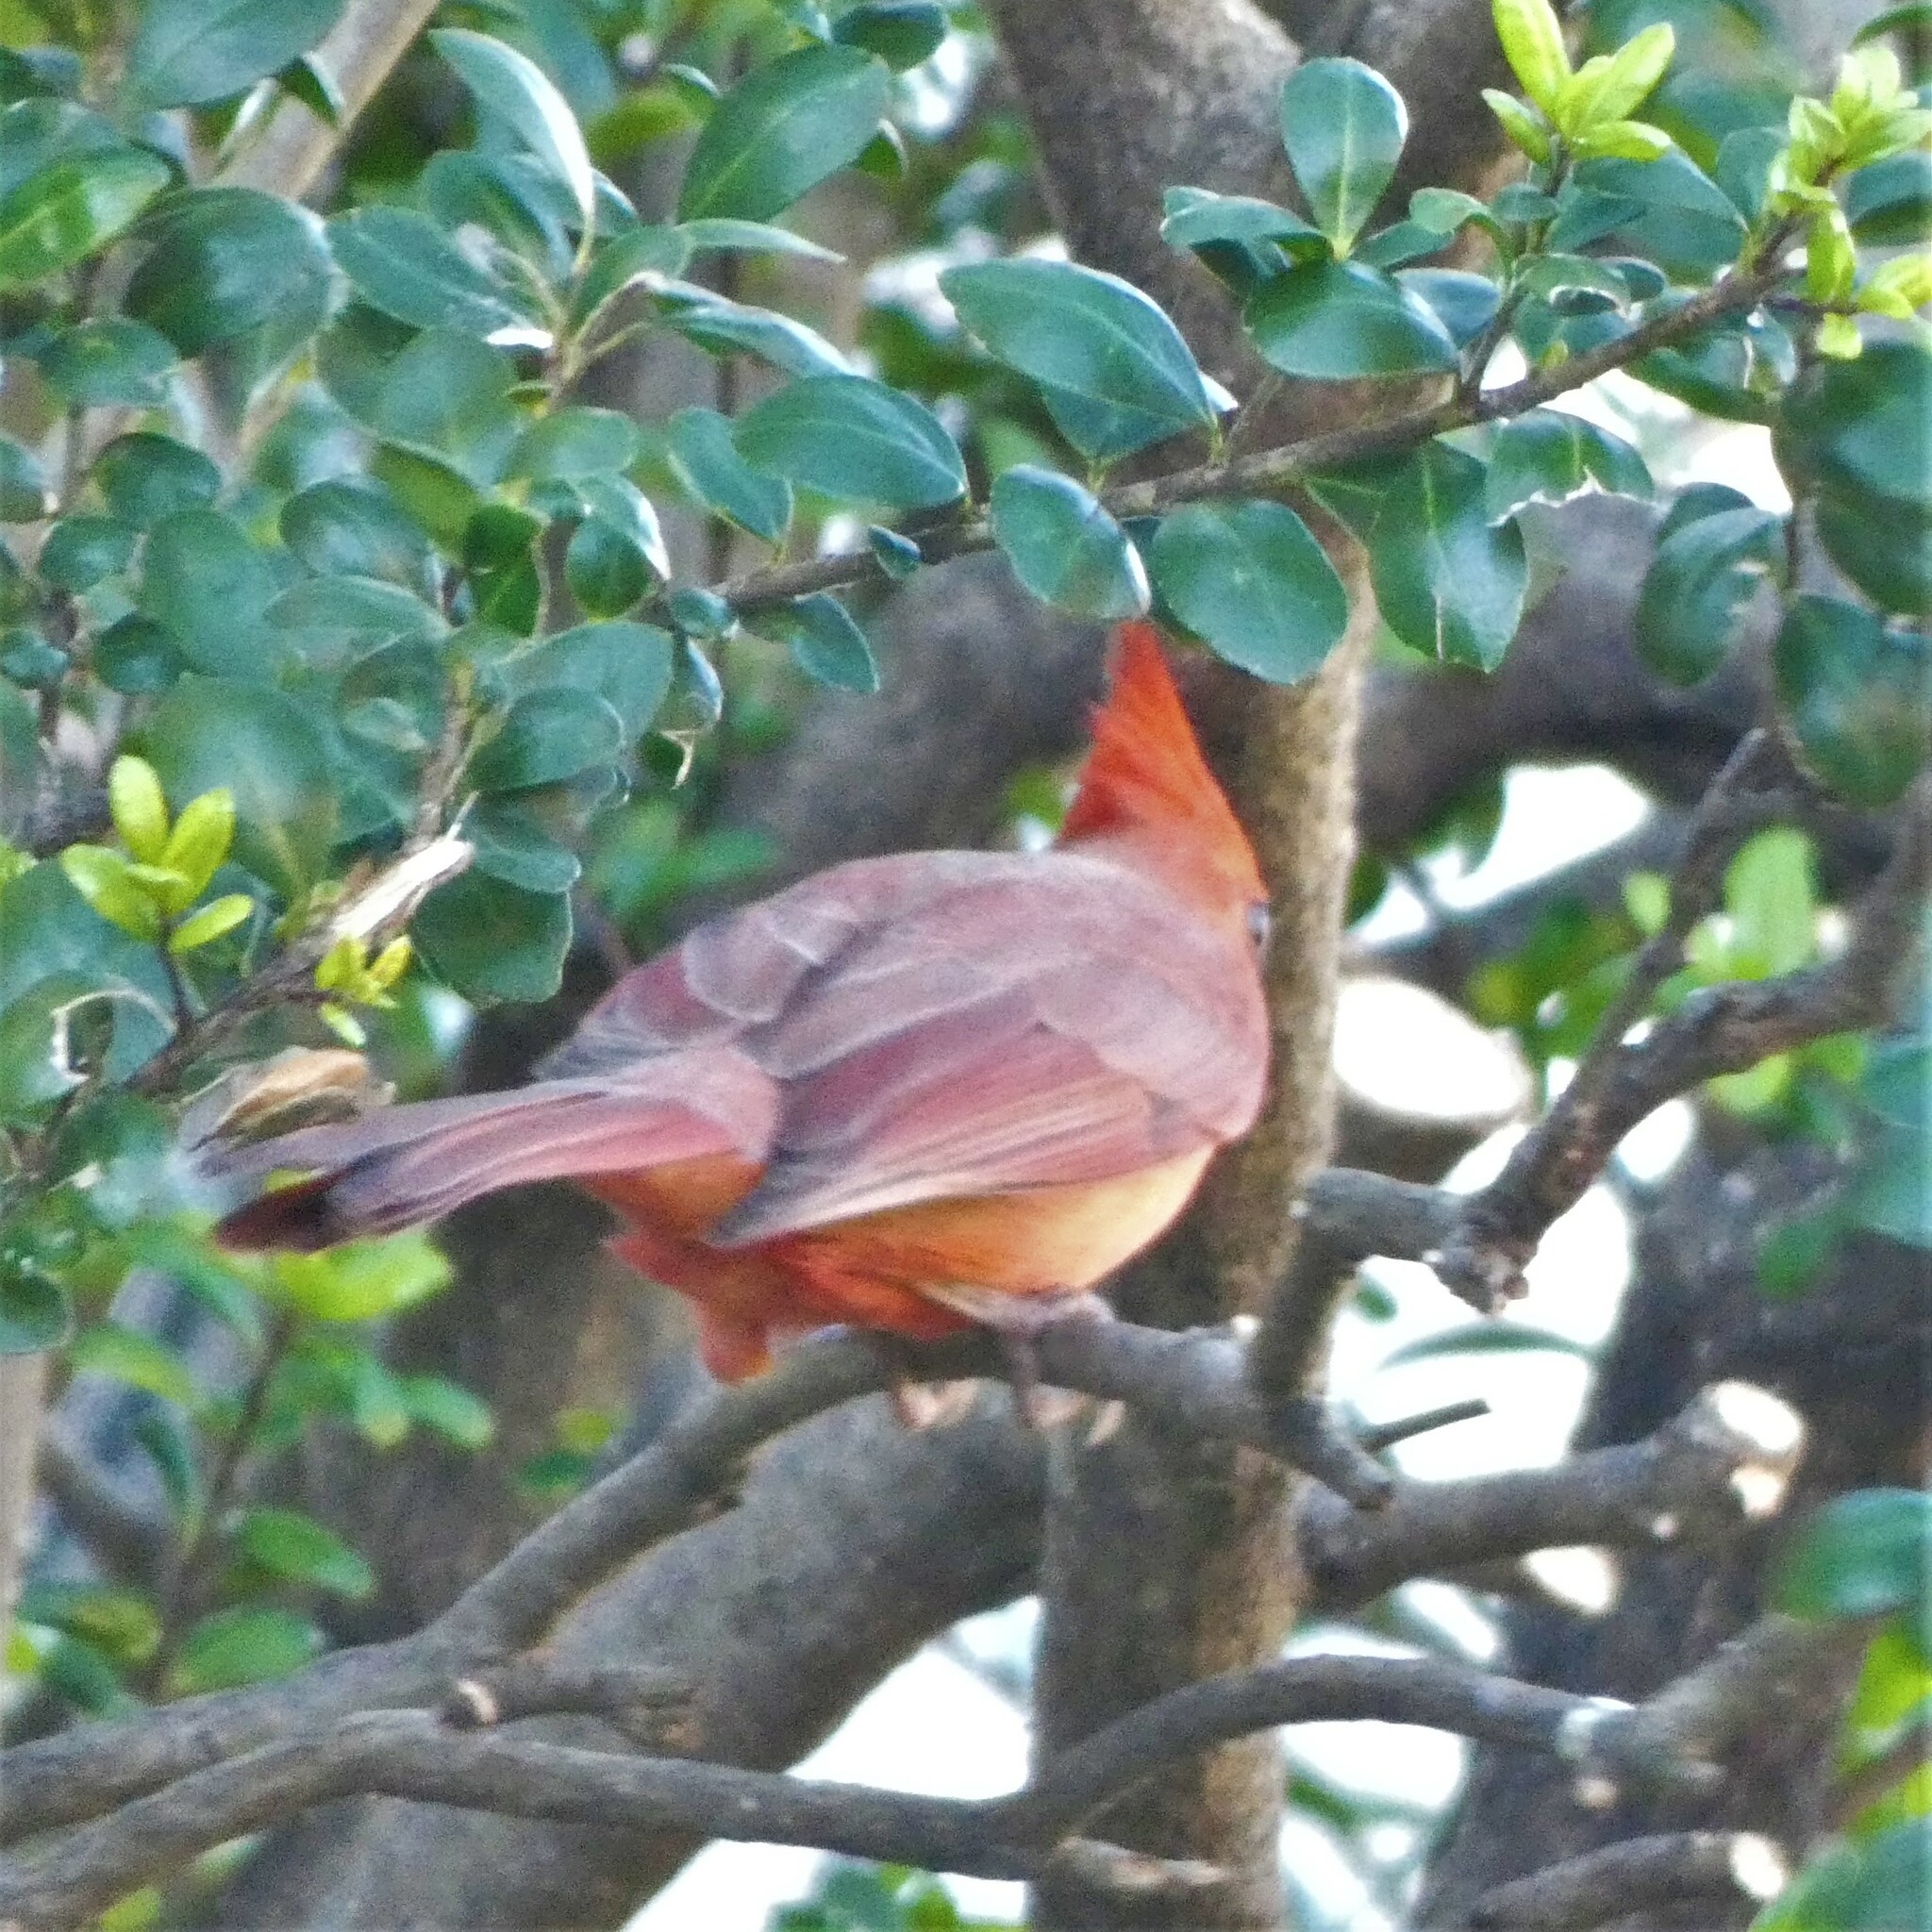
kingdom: Animalia
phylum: Chordata
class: Aves
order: Passeriformes
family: Cardinalidae
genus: Cardinalis
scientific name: Cardinalis cardinalis
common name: Northern cardinal
